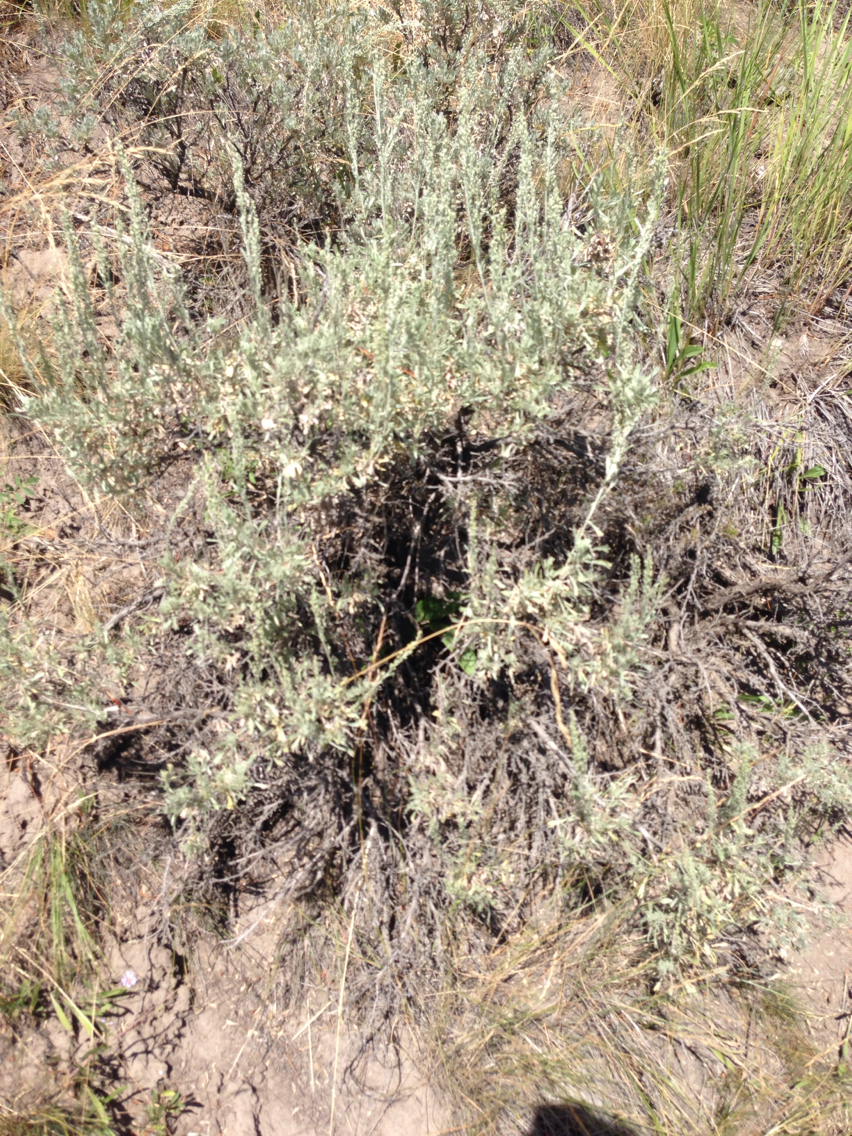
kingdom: Plantae
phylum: Tracheophyta
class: Magnoliopsida
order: Asterales
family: Asteraceae
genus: Artemisia
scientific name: Artemisia tridentata
